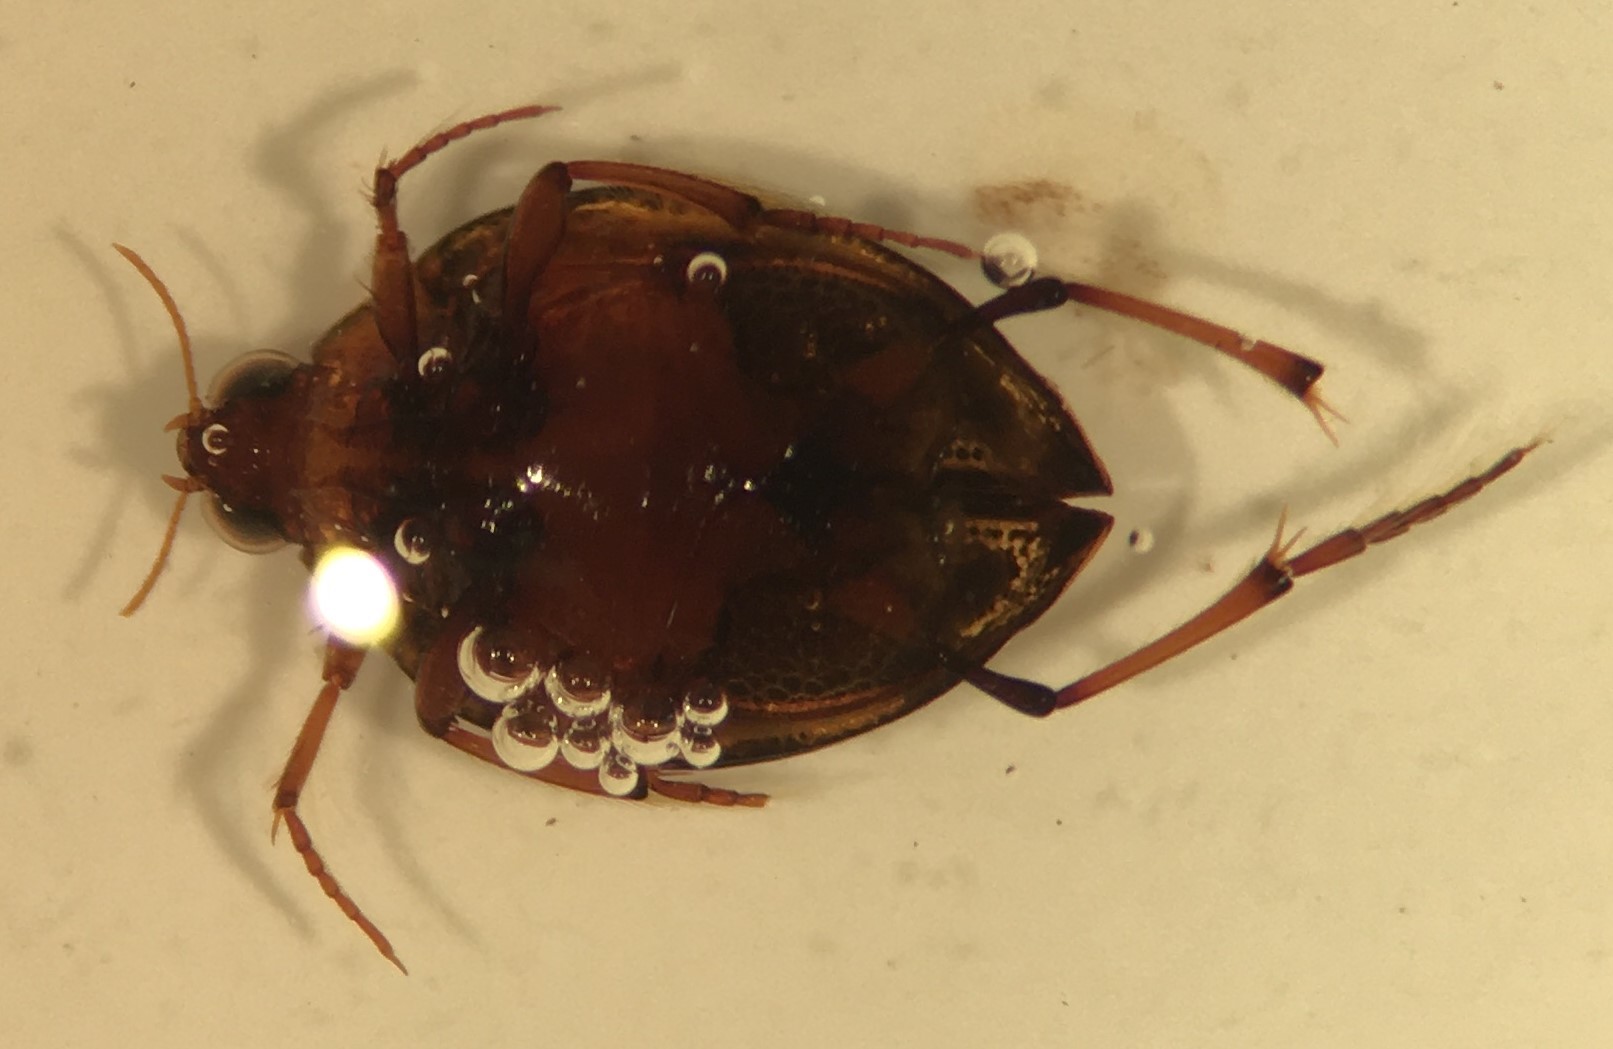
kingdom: Animalia
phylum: Arthropoda
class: Insecta
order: Coleoptera
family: Haliplidae
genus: Peltodytes
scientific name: Peltodytes oppositus
